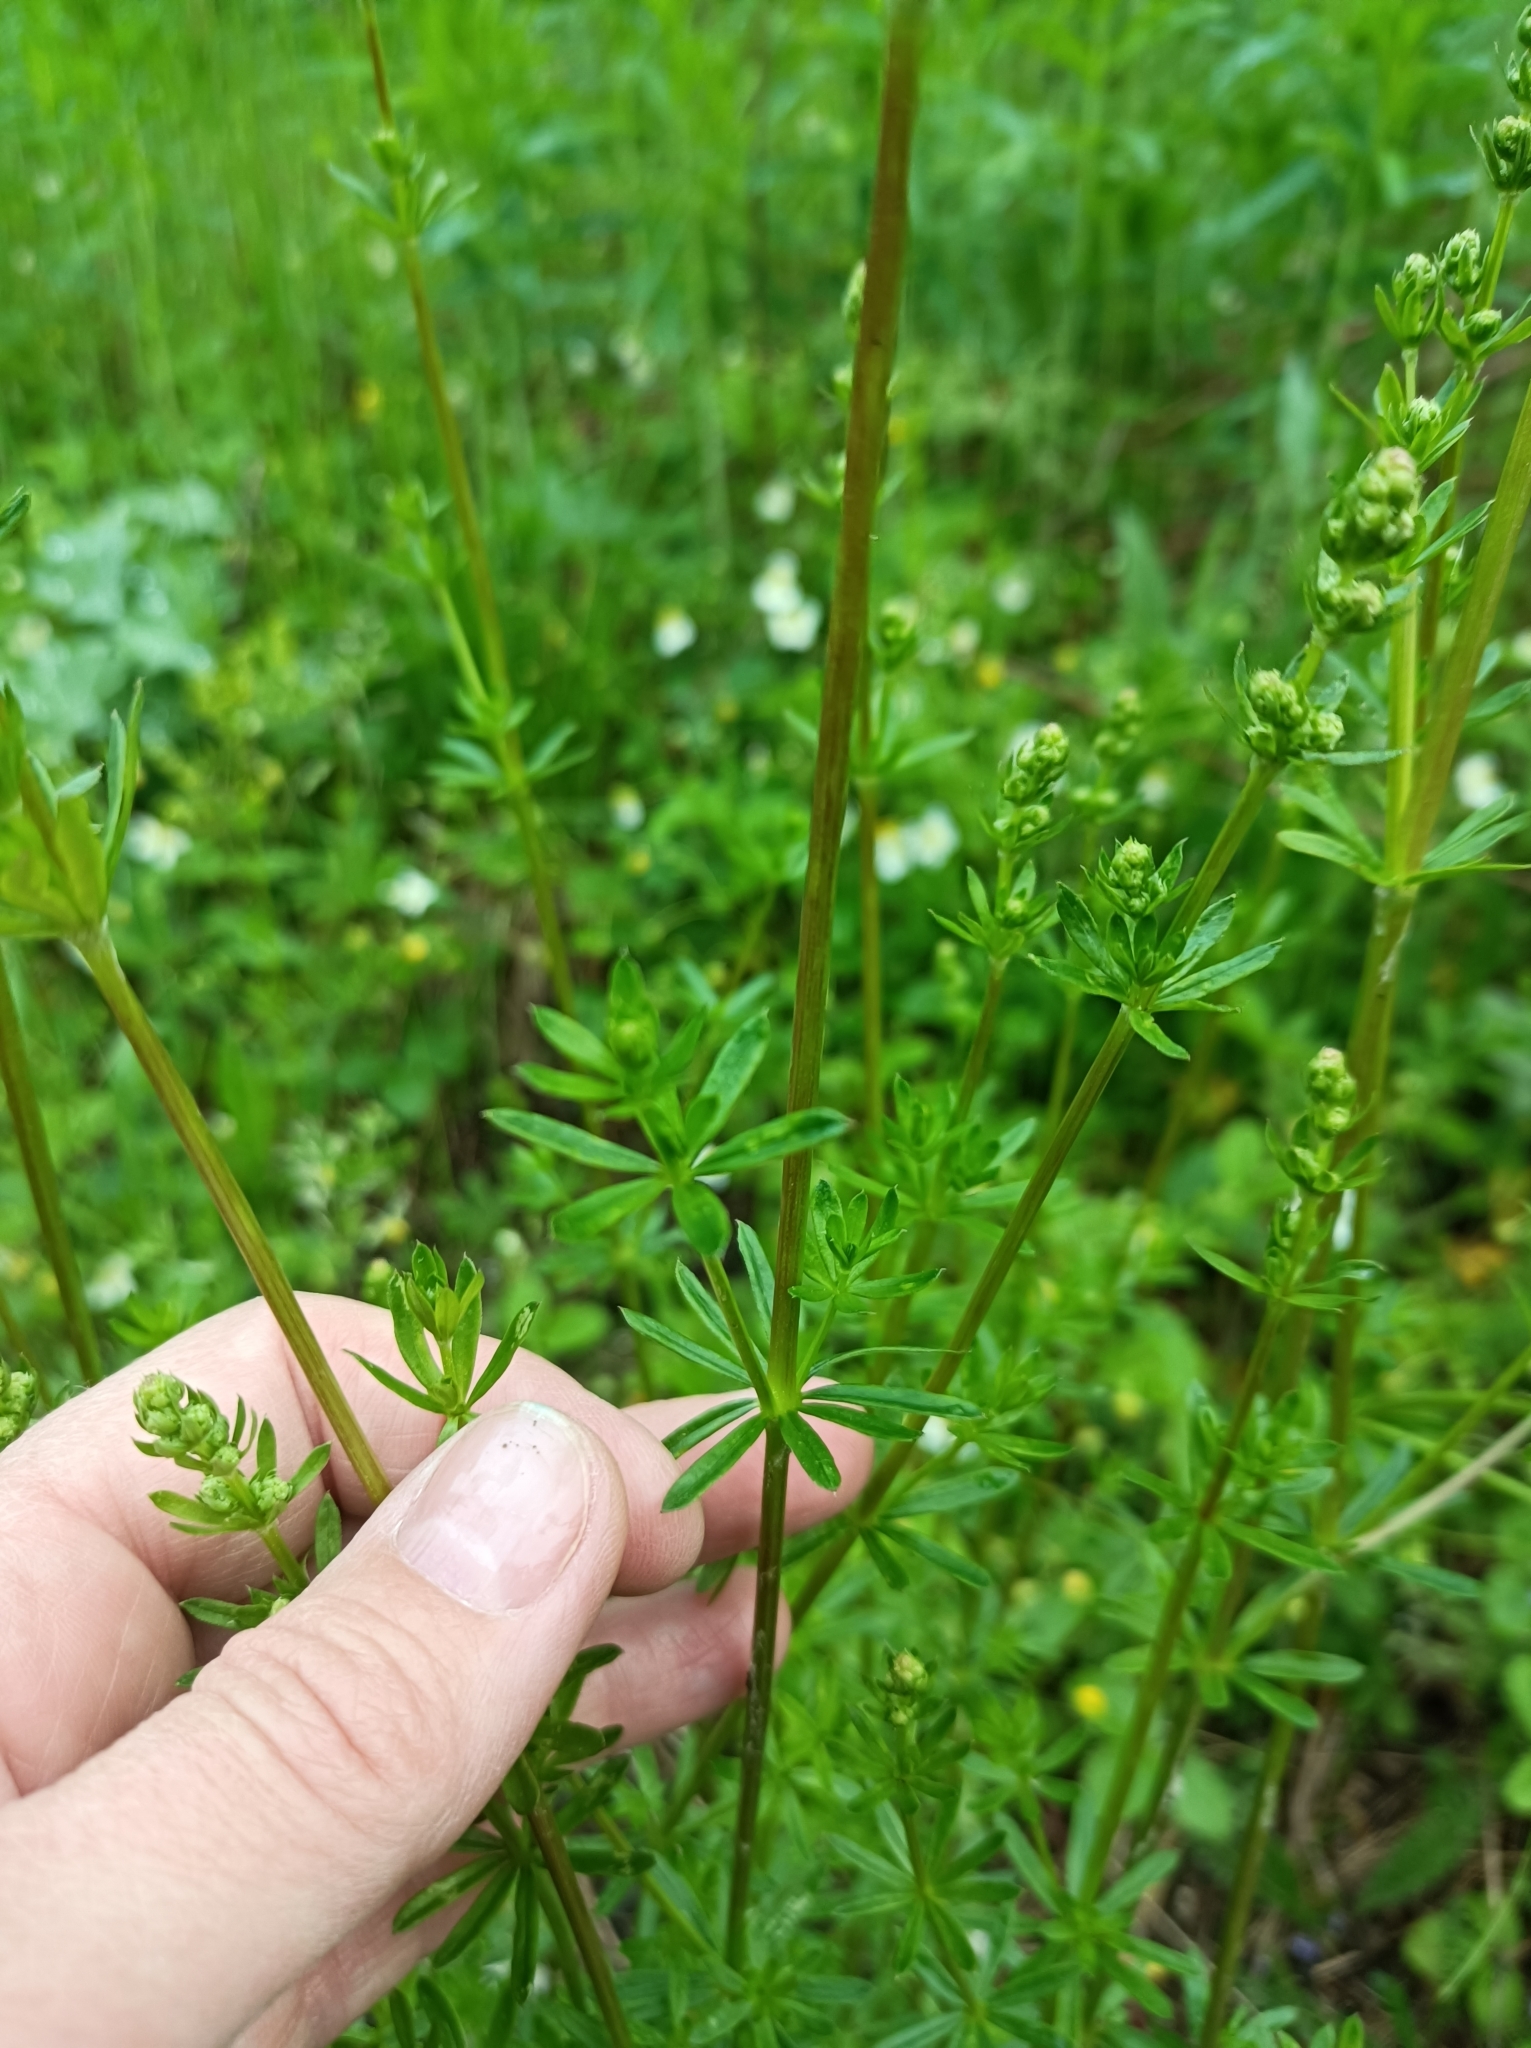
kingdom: Plantae
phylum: Tracheophyta
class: Magnoliopsida
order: Gentianales
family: Rubiaceae
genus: Galium
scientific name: Galium mollugo
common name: Hedge bedstraw
